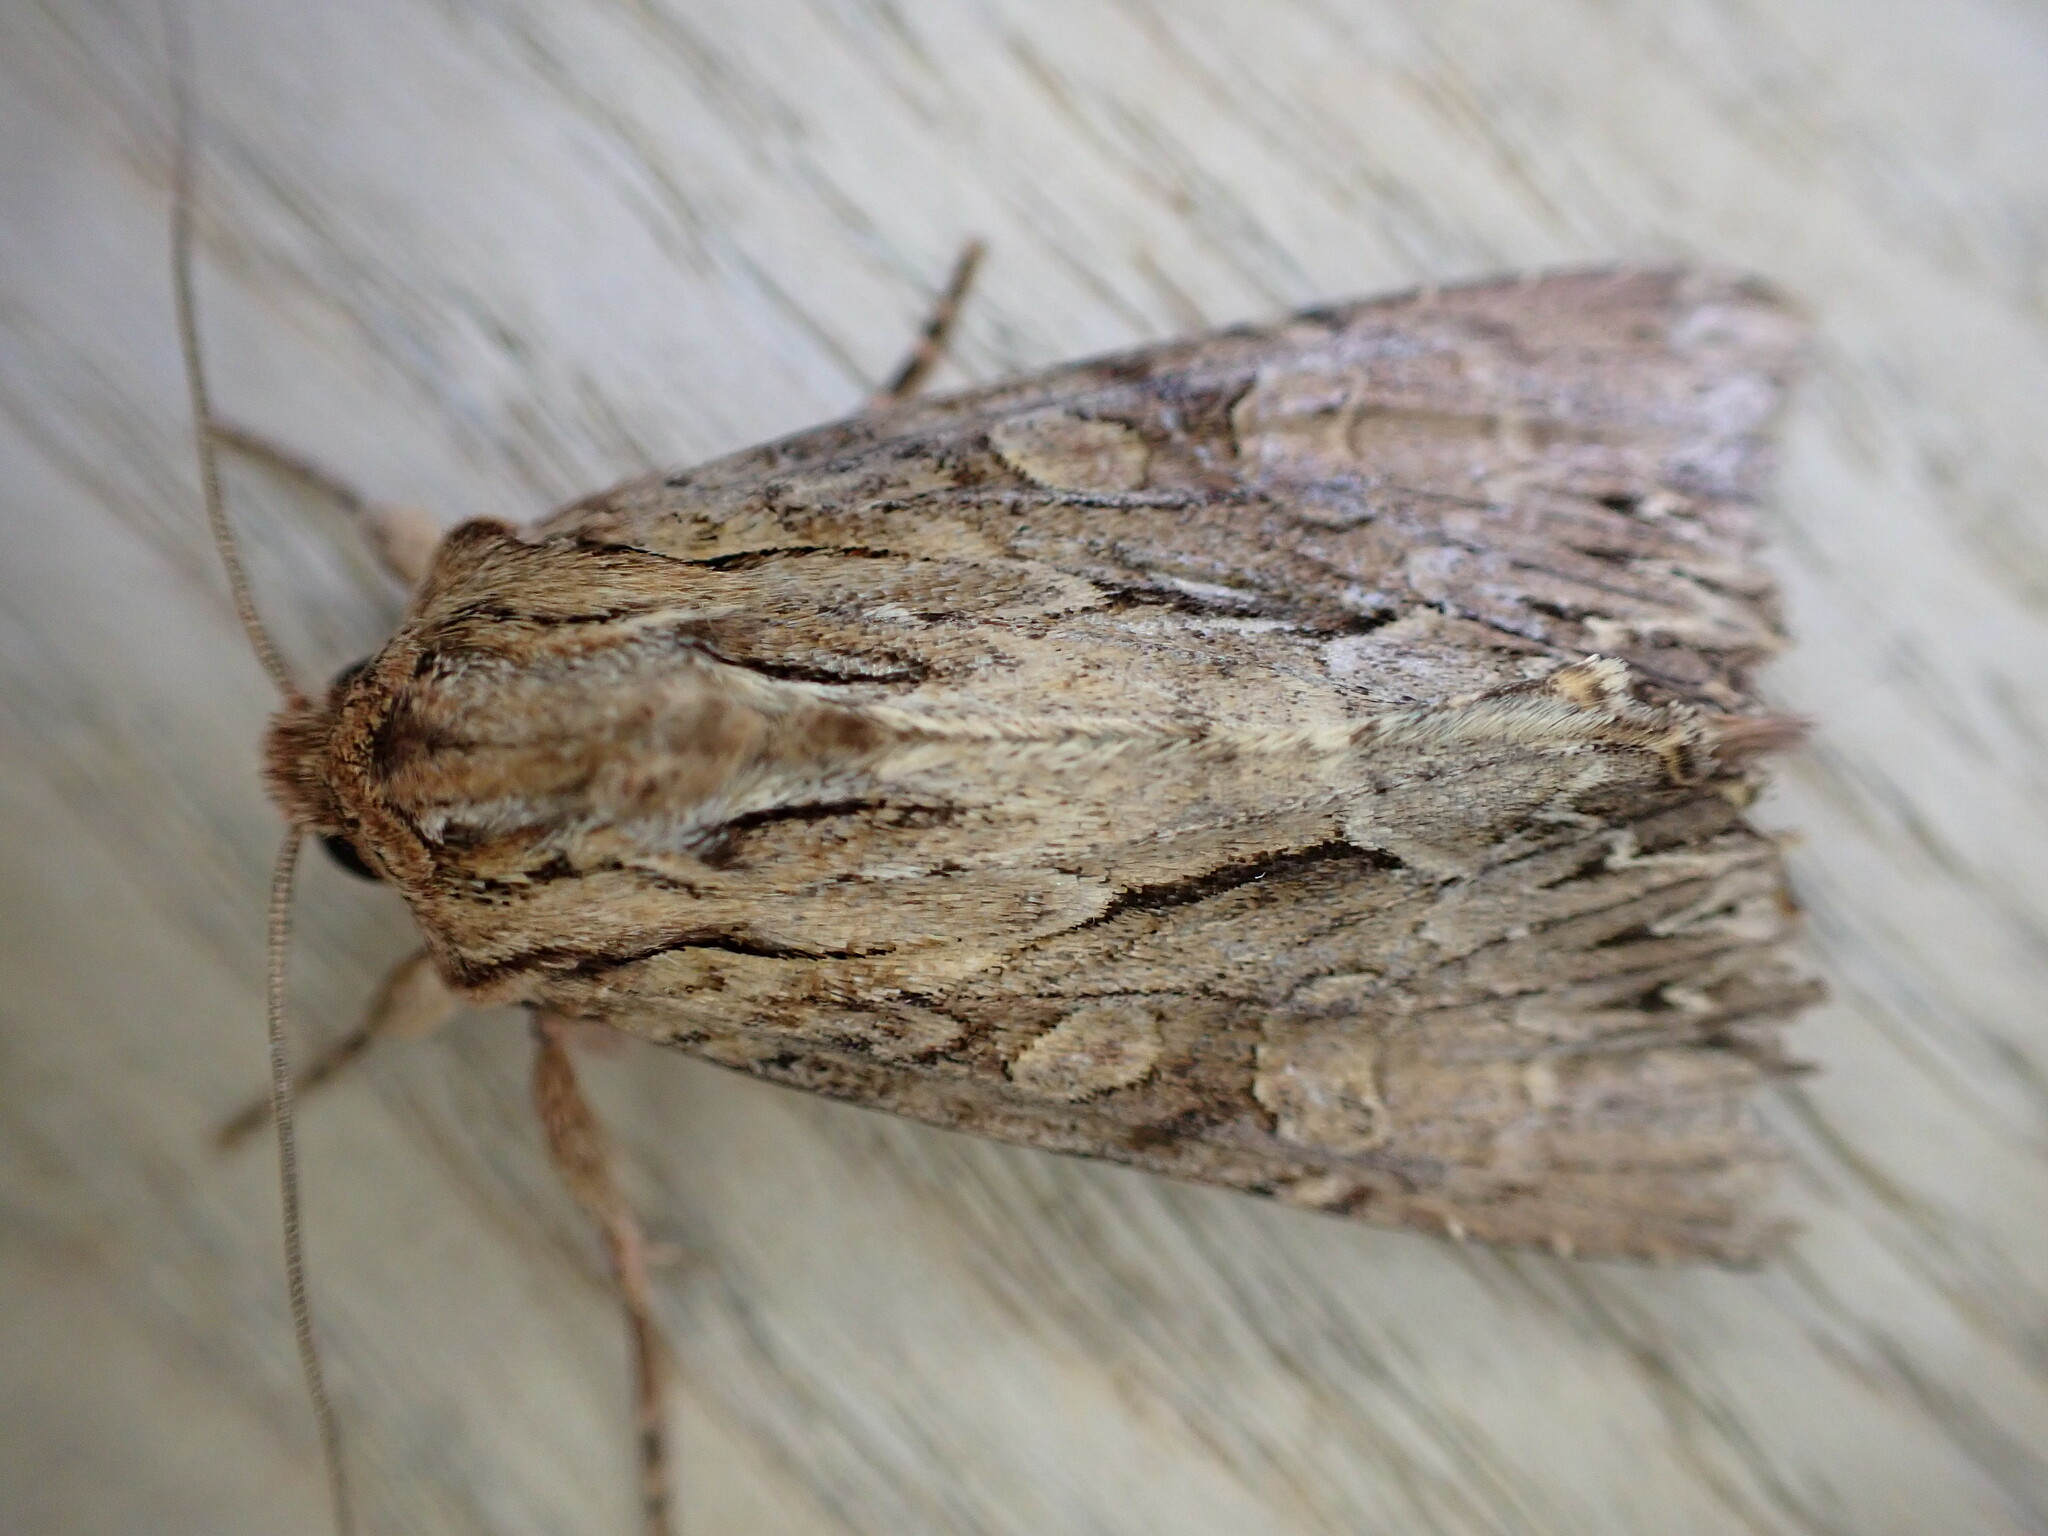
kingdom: Animalia
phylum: Arthropoda
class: Insecta
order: Lepidoptera
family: Noctuidae
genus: Apamea
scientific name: Apamea monoglypha
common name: Dark arches
